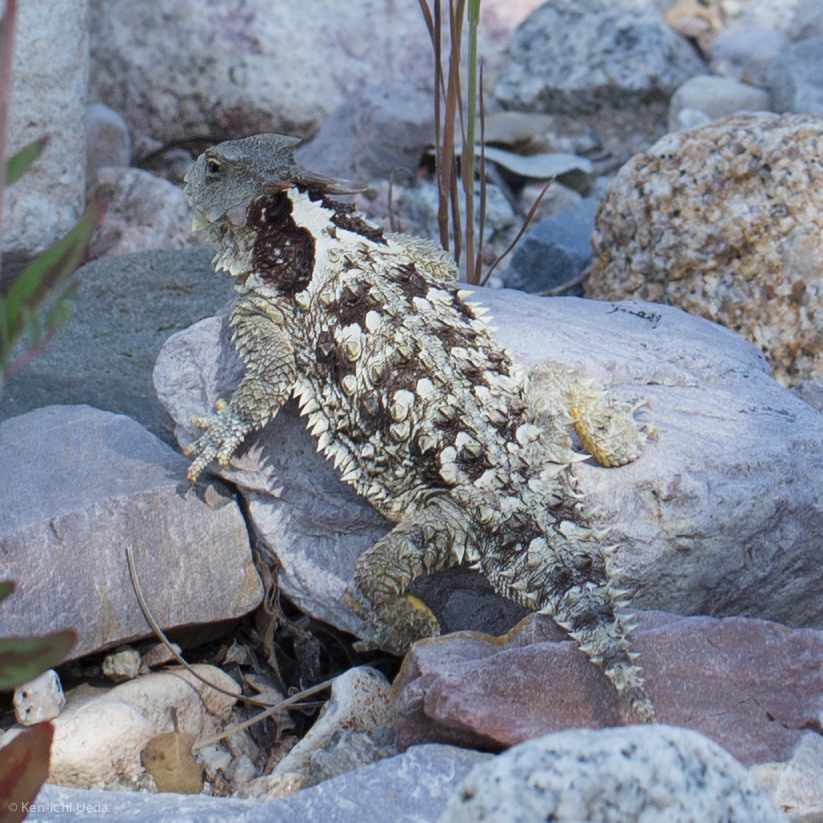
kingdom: Animalia
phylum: Chordata
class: Squamata
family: Phrynosomatidae
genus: Phrynosoma
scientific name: Phrynosoma blainvillii
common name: San diego horned lizard
